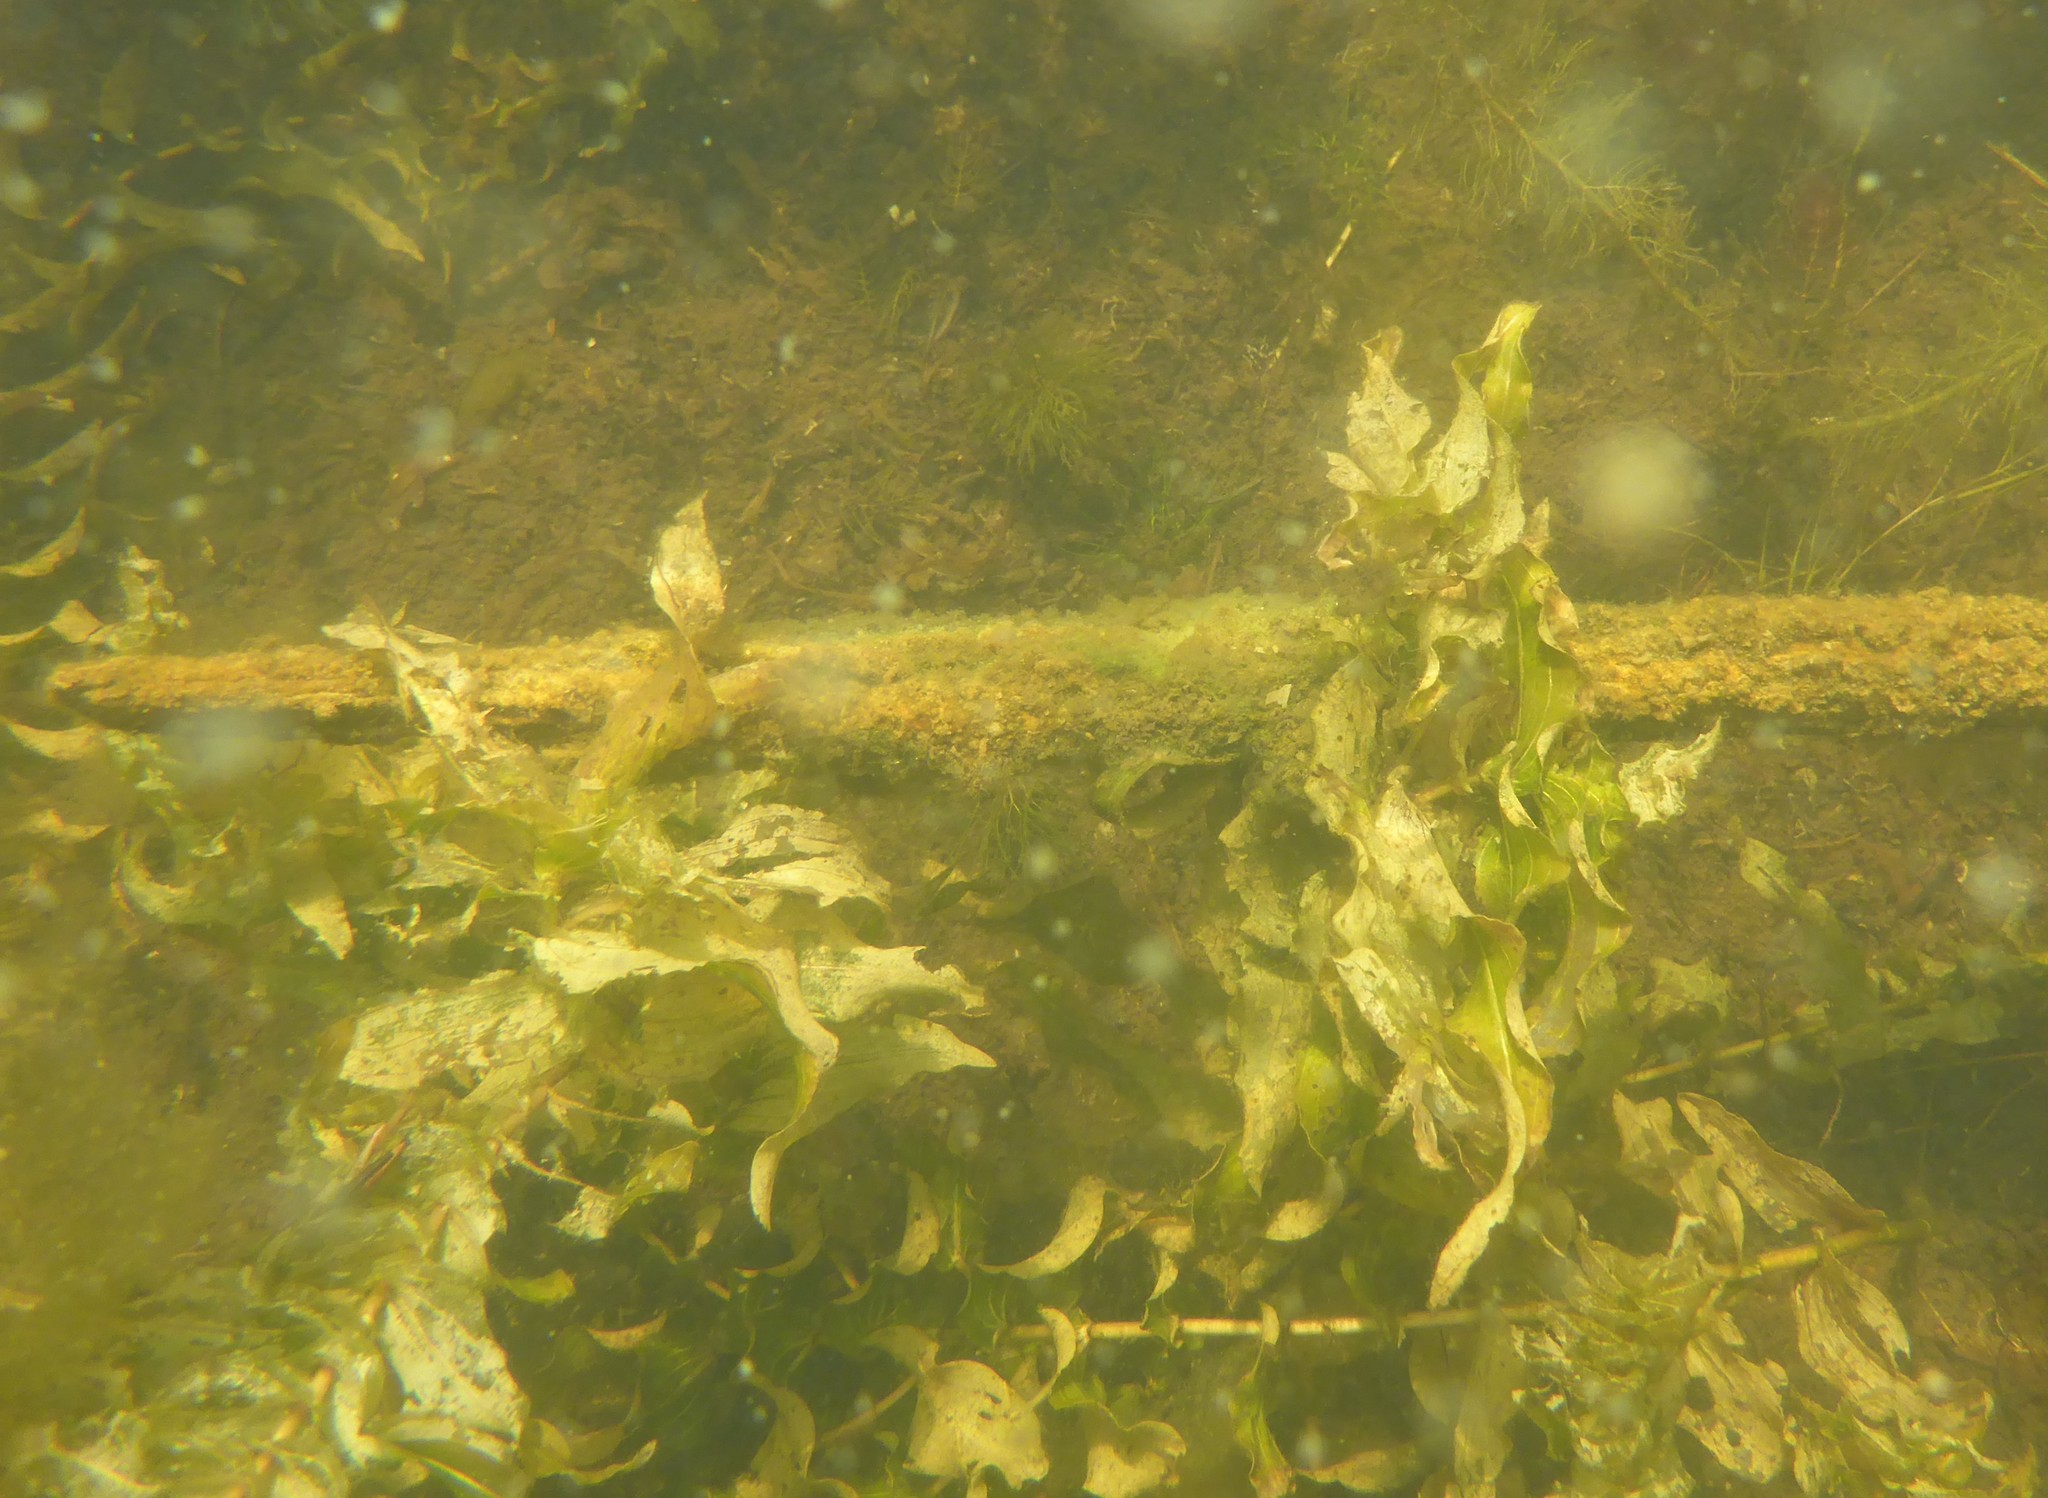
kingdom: Plantae
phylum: Tracheophyta
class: Liliopsida
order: Alismatales
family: Potamogetonaceae
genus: Potamogeton
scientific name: Potamogeton richardsonii
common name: Richardson's pondweed
